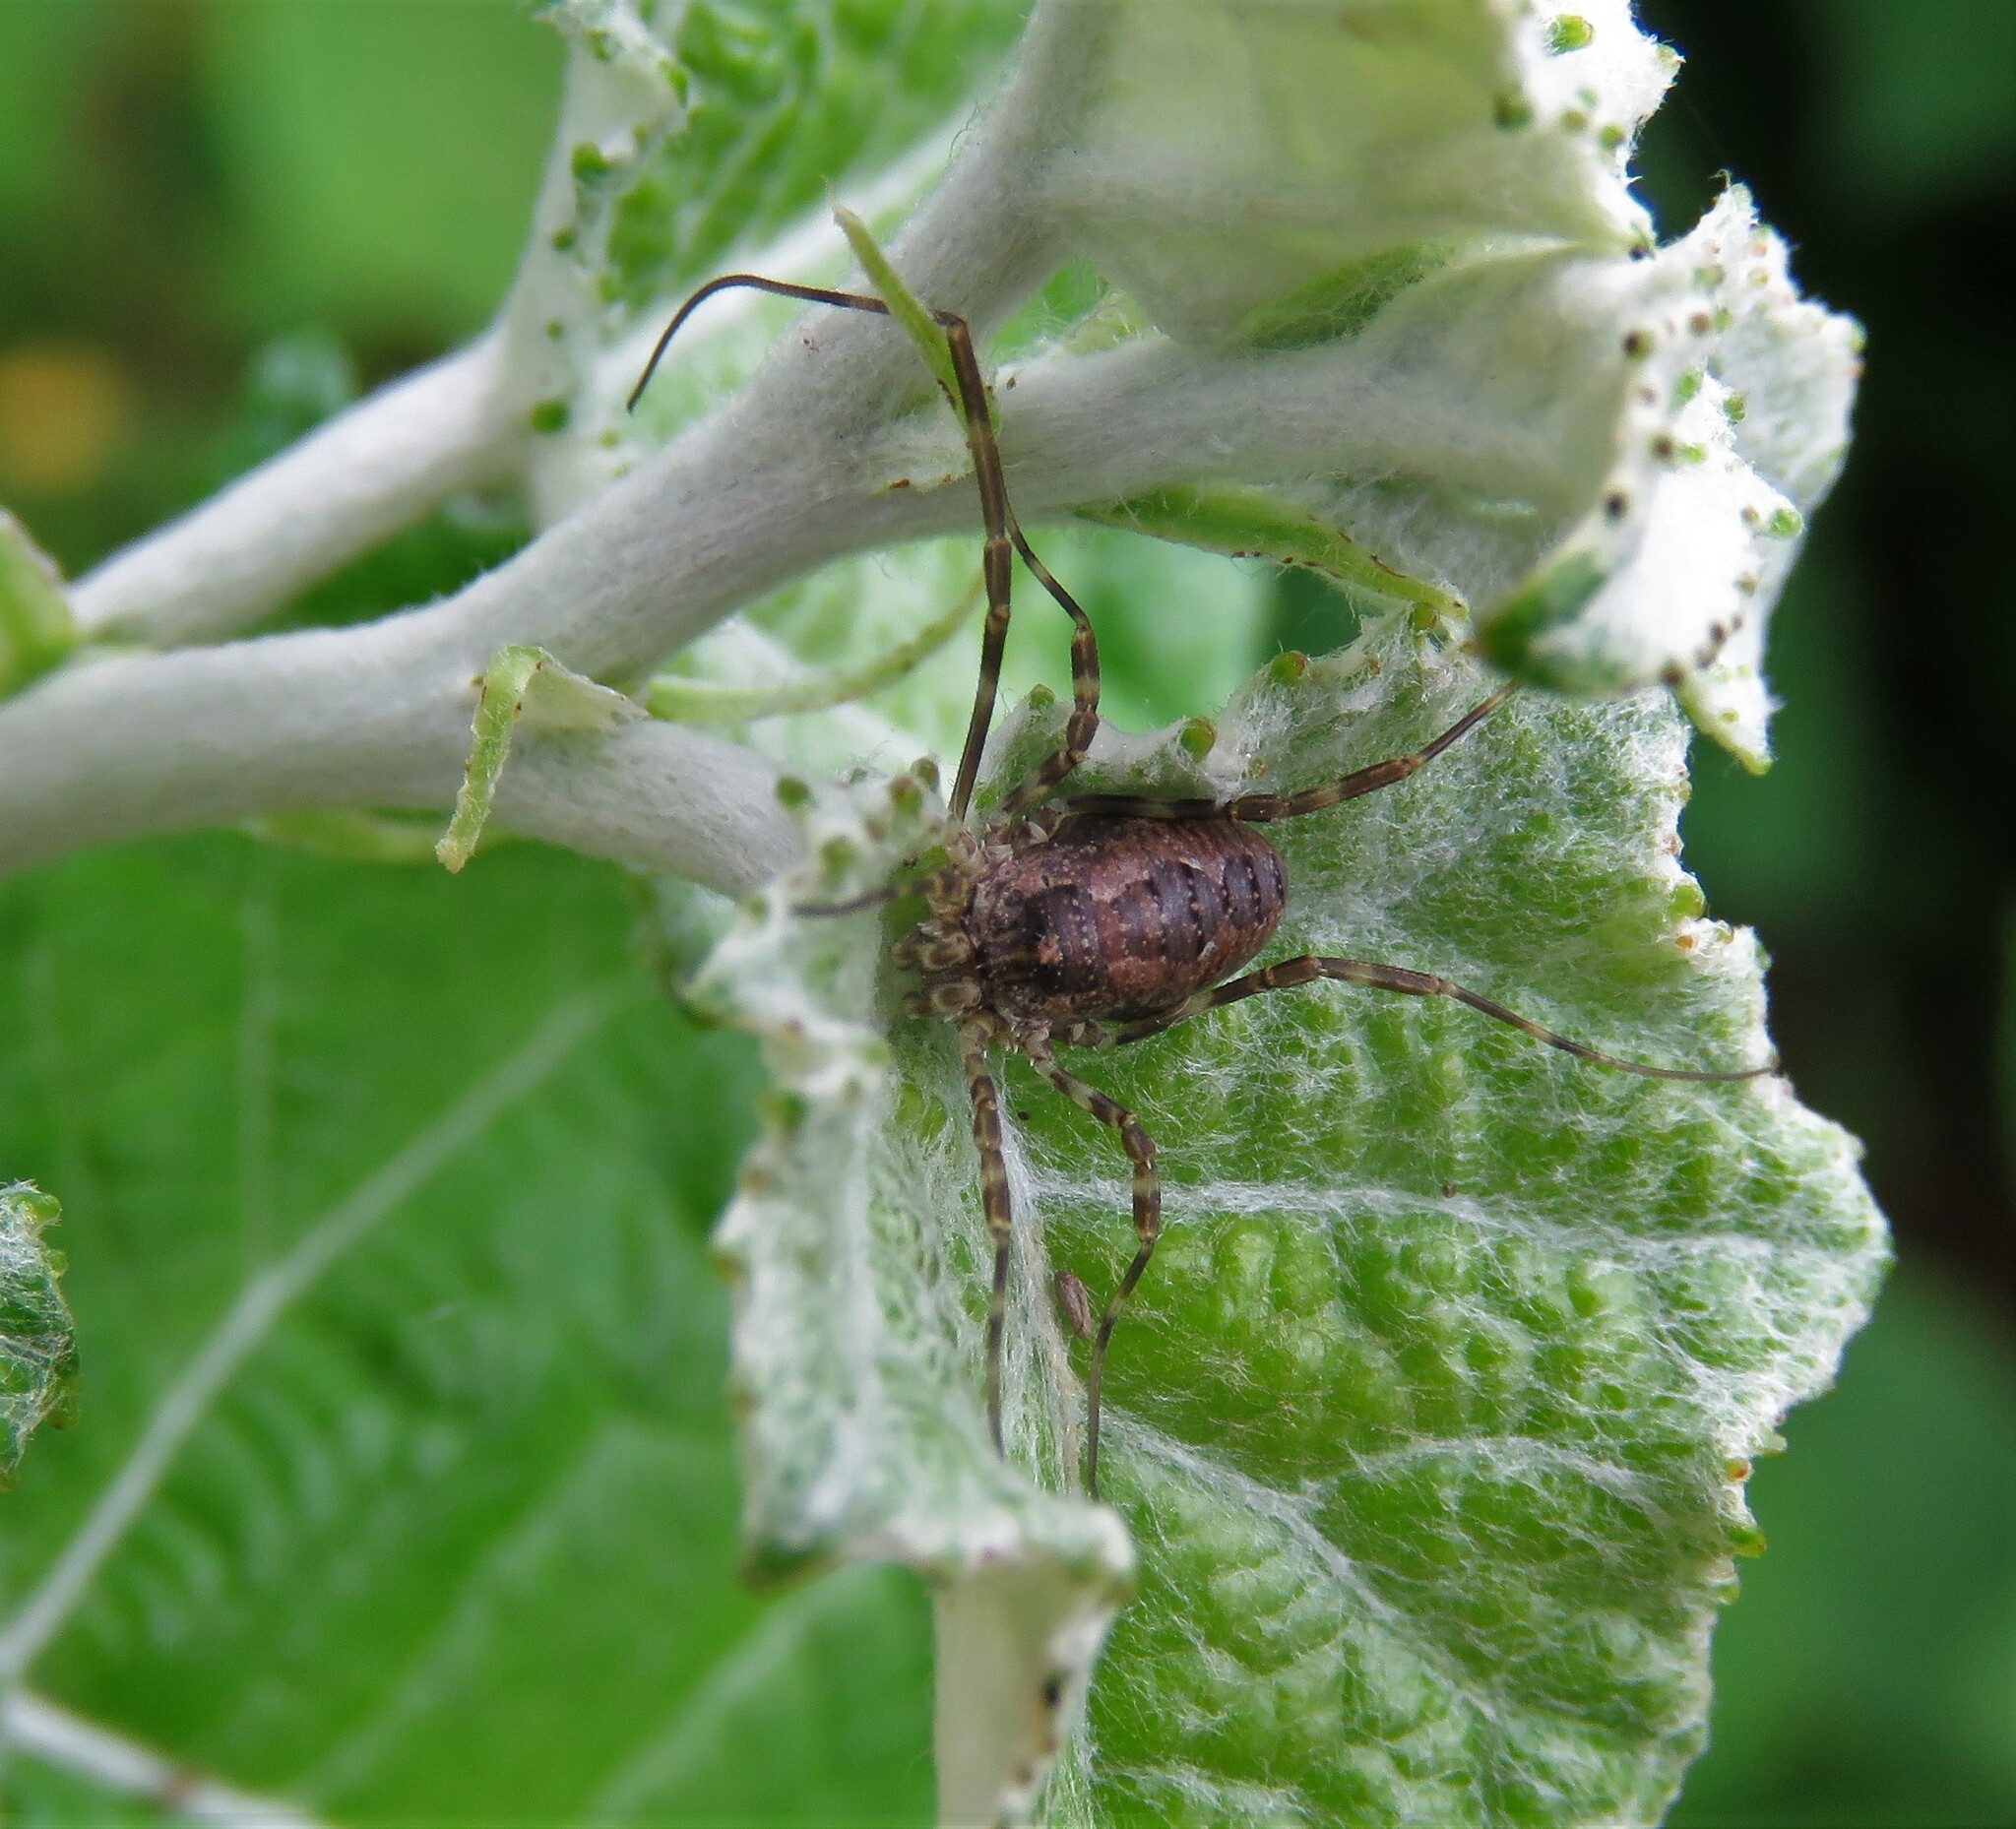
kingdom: Animalia
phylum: Arthropoda
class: Arachnida
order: Opiliones
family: Phalangiidae
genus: Odiellus
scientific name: Odiellus pictus
